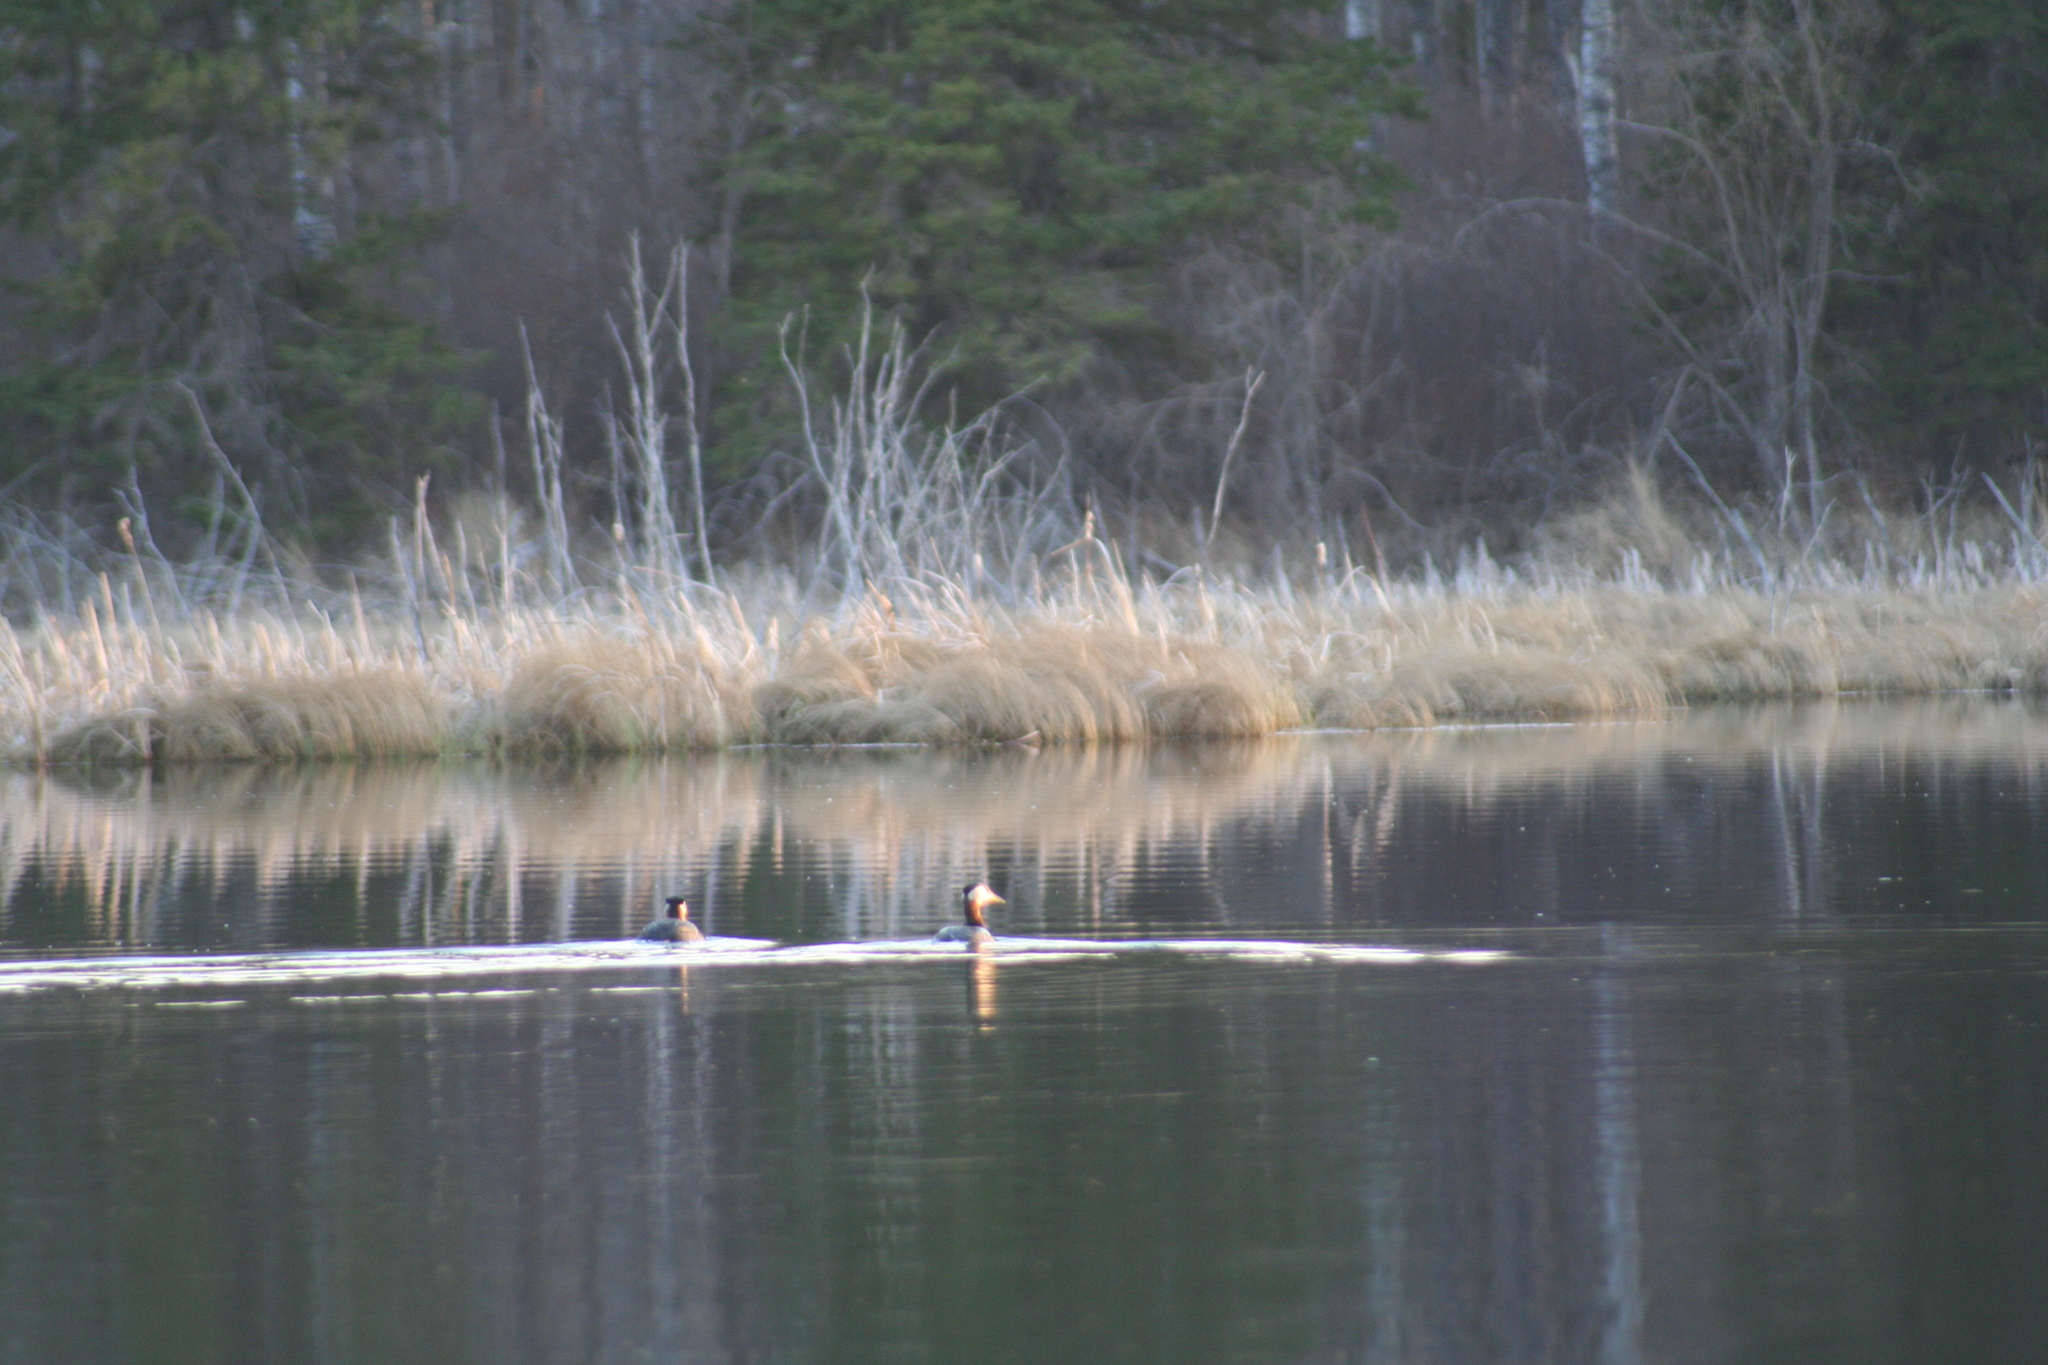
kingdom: Animalia
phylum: Chordata
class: Aves
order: Podicipediformes
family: Podicipedidae
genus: Podiceps
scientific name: Podiceps grisegena
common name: Red-necked grebe
